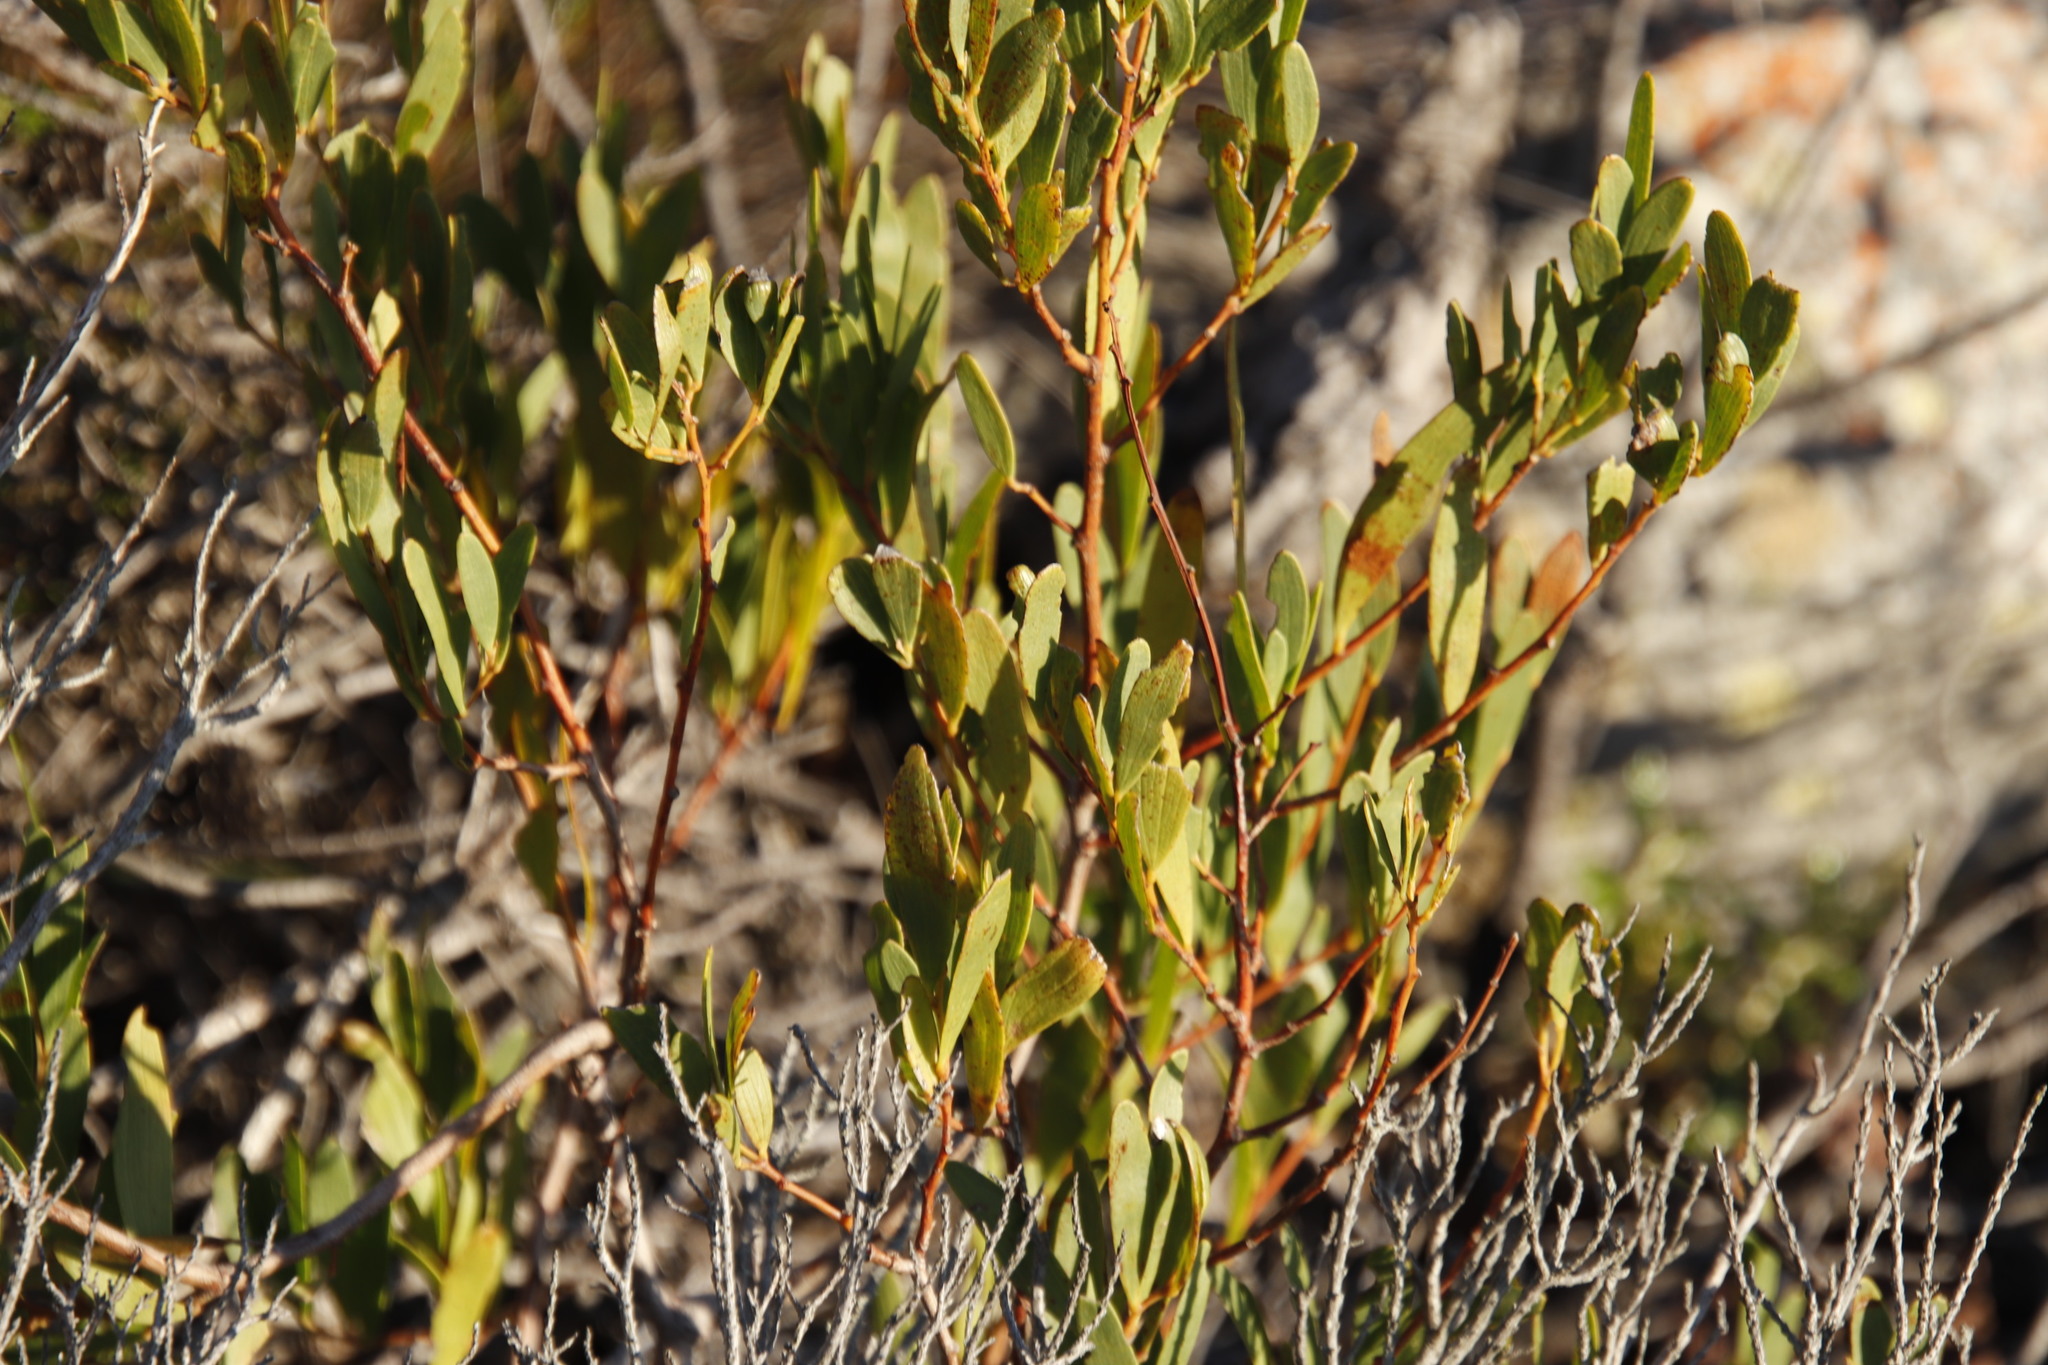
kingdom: Plantae
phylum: Tracheophyta
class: Magnoliopsida
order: Fabales
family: Fabaceae
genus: Acacia
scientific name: Acacia cyclops
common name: Coastal wattle
